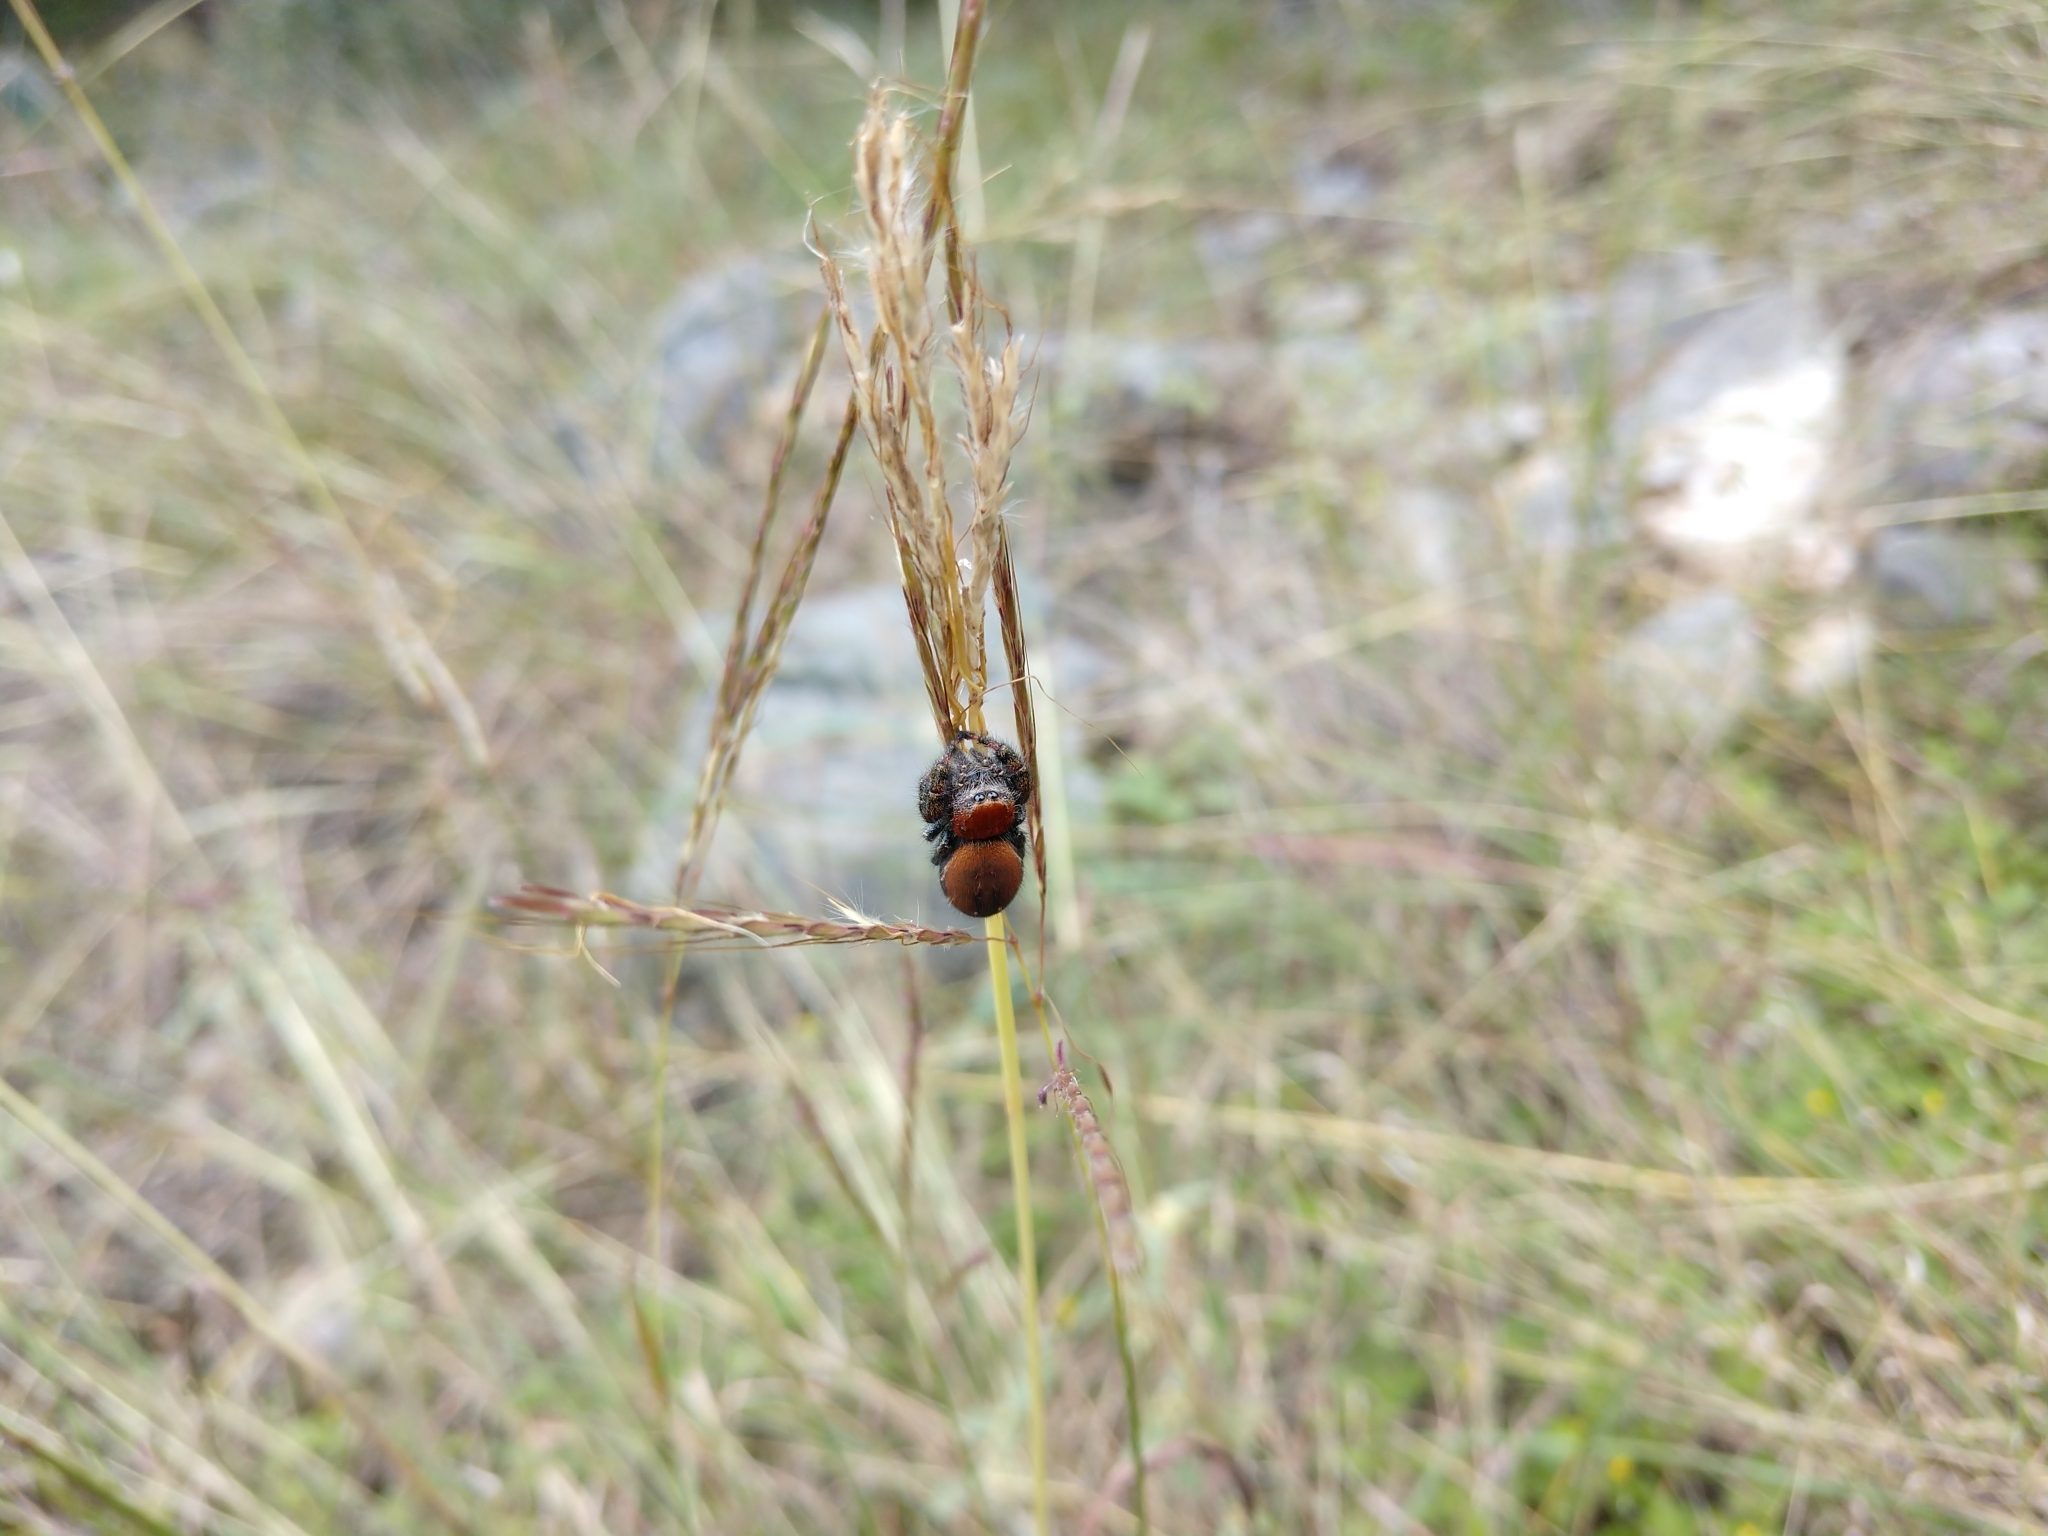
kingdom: Animalia
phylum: Arthropoda
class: Arachnida
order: Araneae
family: Salticidae
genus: Phidippus
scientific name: Phidippus cardinalis
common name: Cardinal jumper
